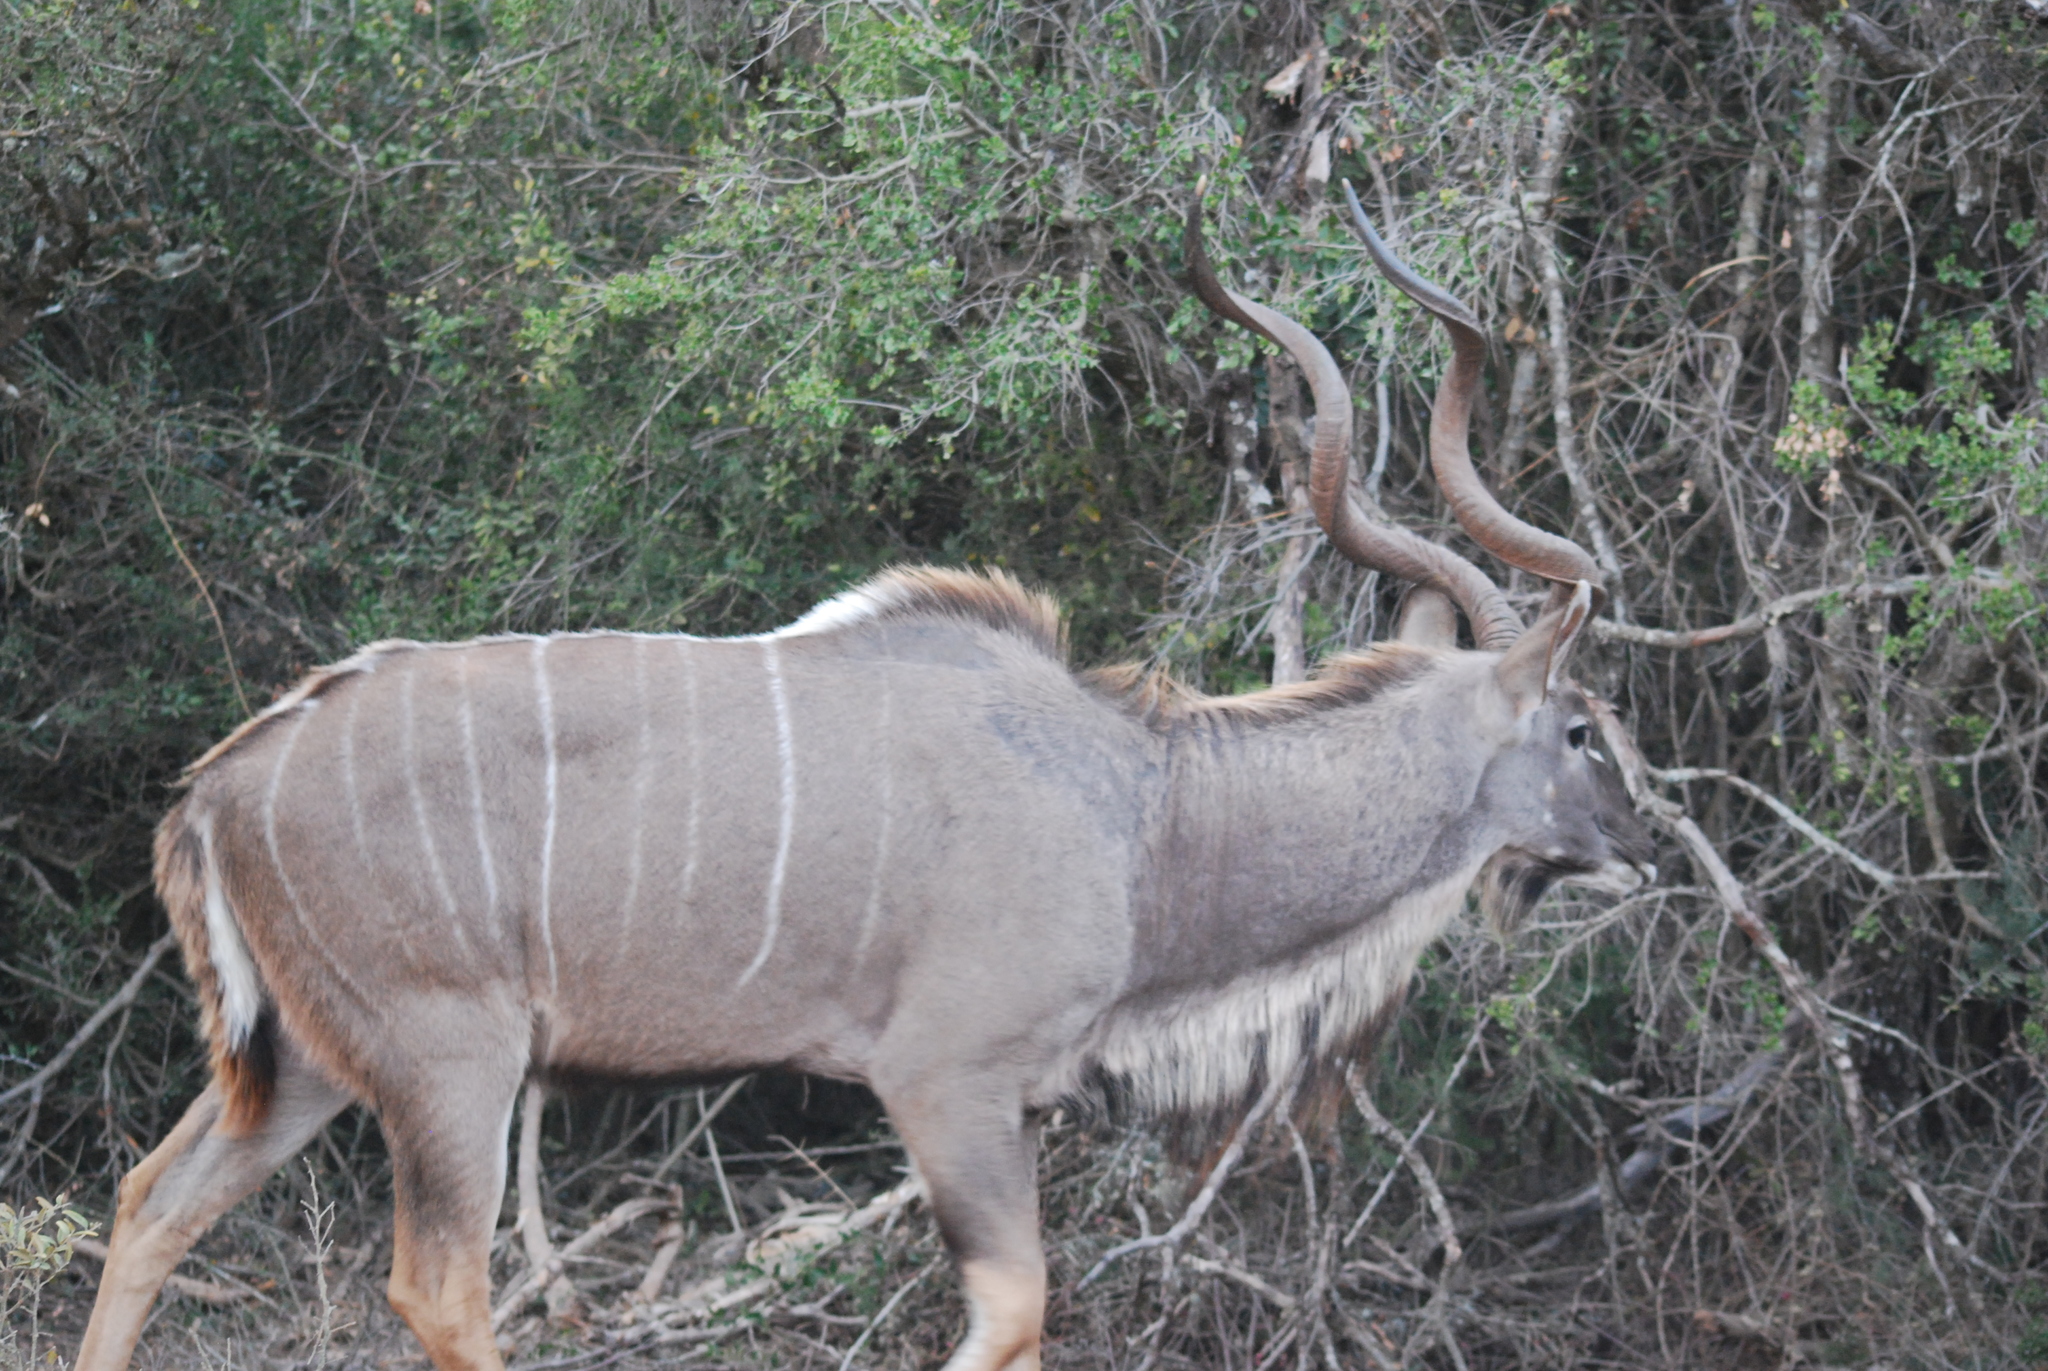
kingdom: Animalia
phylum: Chordata
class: Mammalia
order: Artiodactyla
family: Bovidae
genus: Tragelaphus
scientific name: Tragelaphus strepsiceros
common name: Greater kudu
